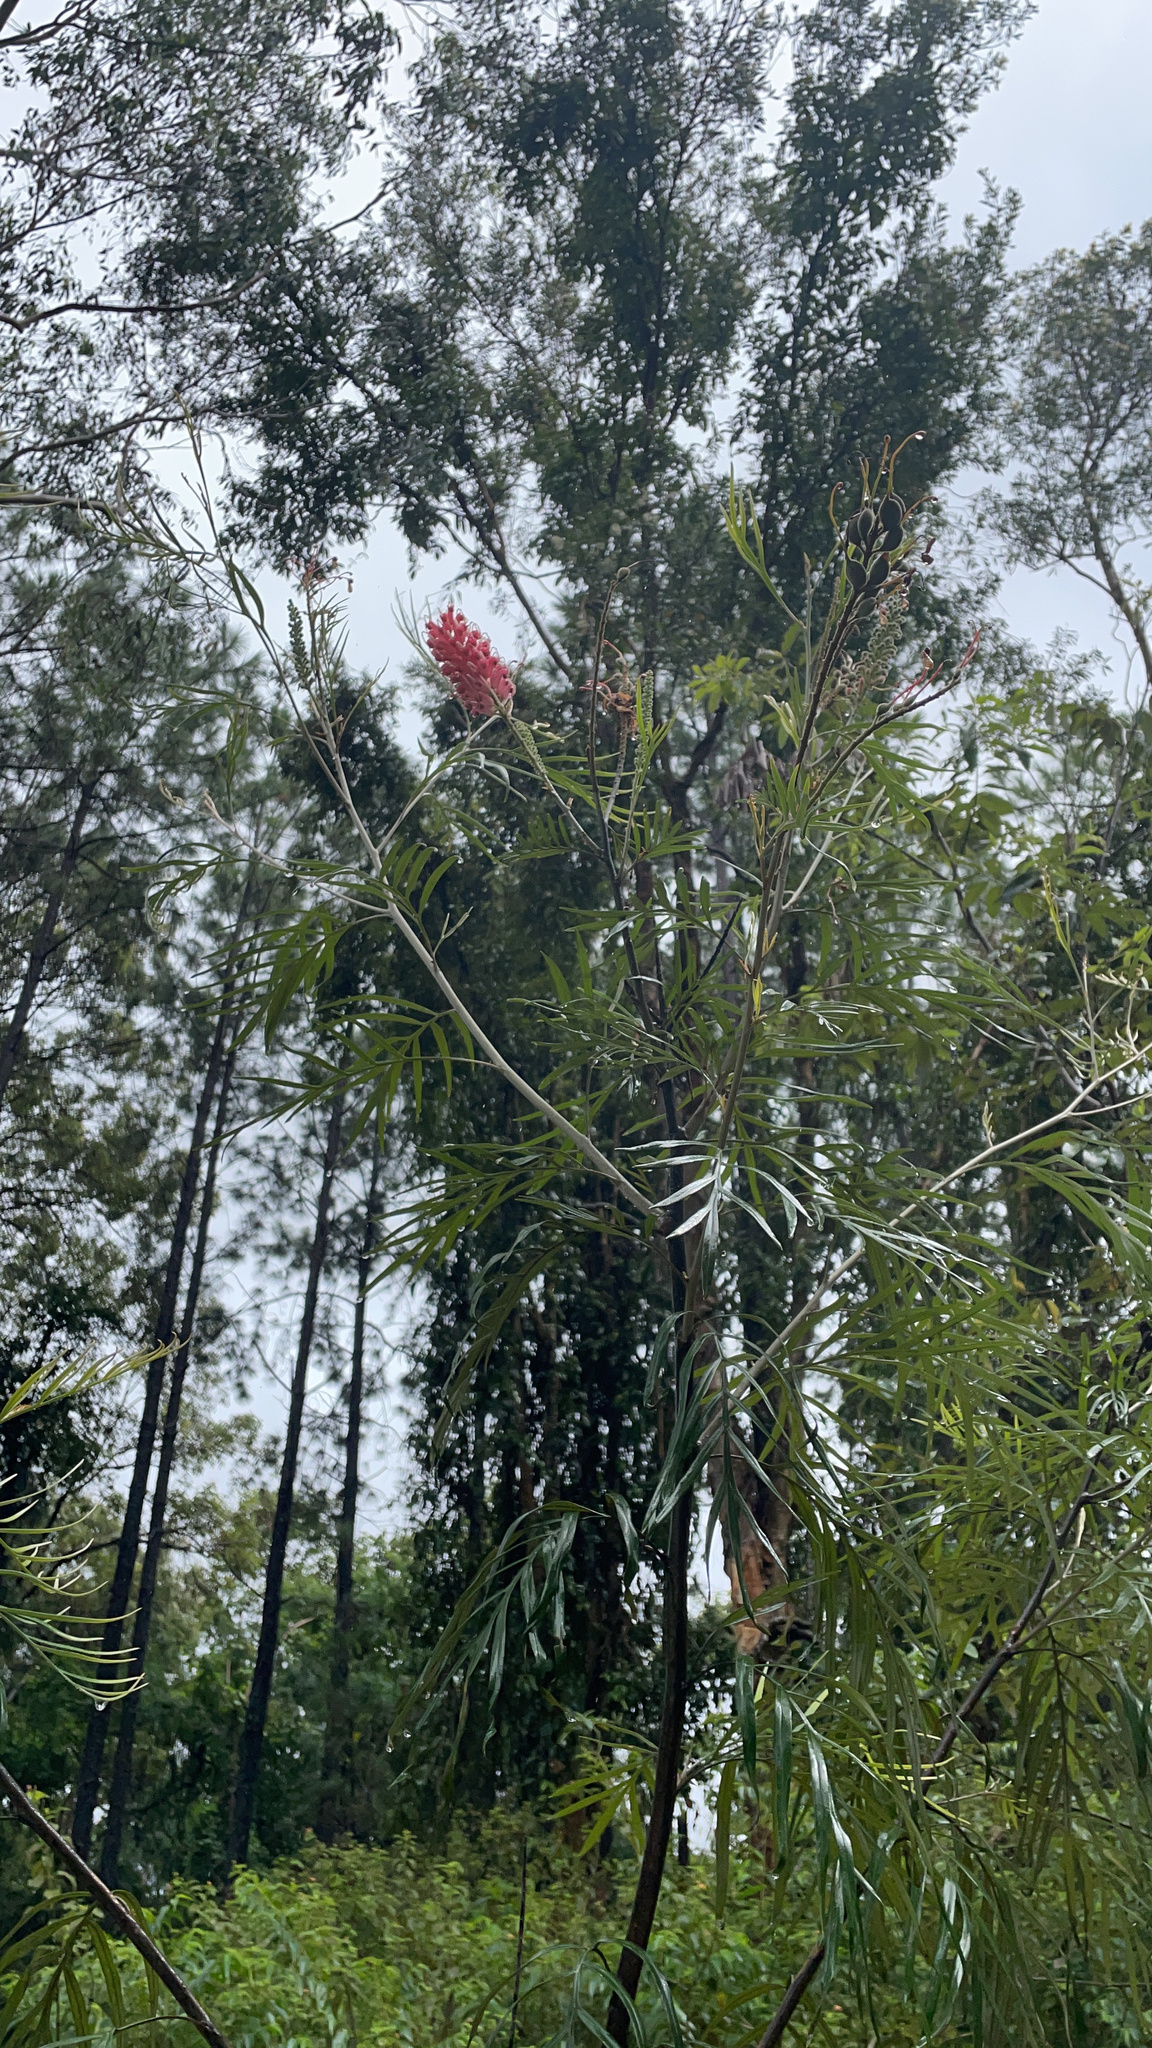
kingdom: Plantae
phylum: Tracheophyta
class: Magnoliopsida
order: Proteales
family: Proteaceae
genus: Grevillea
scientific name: Grevillea banksii
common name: Kahili flower
